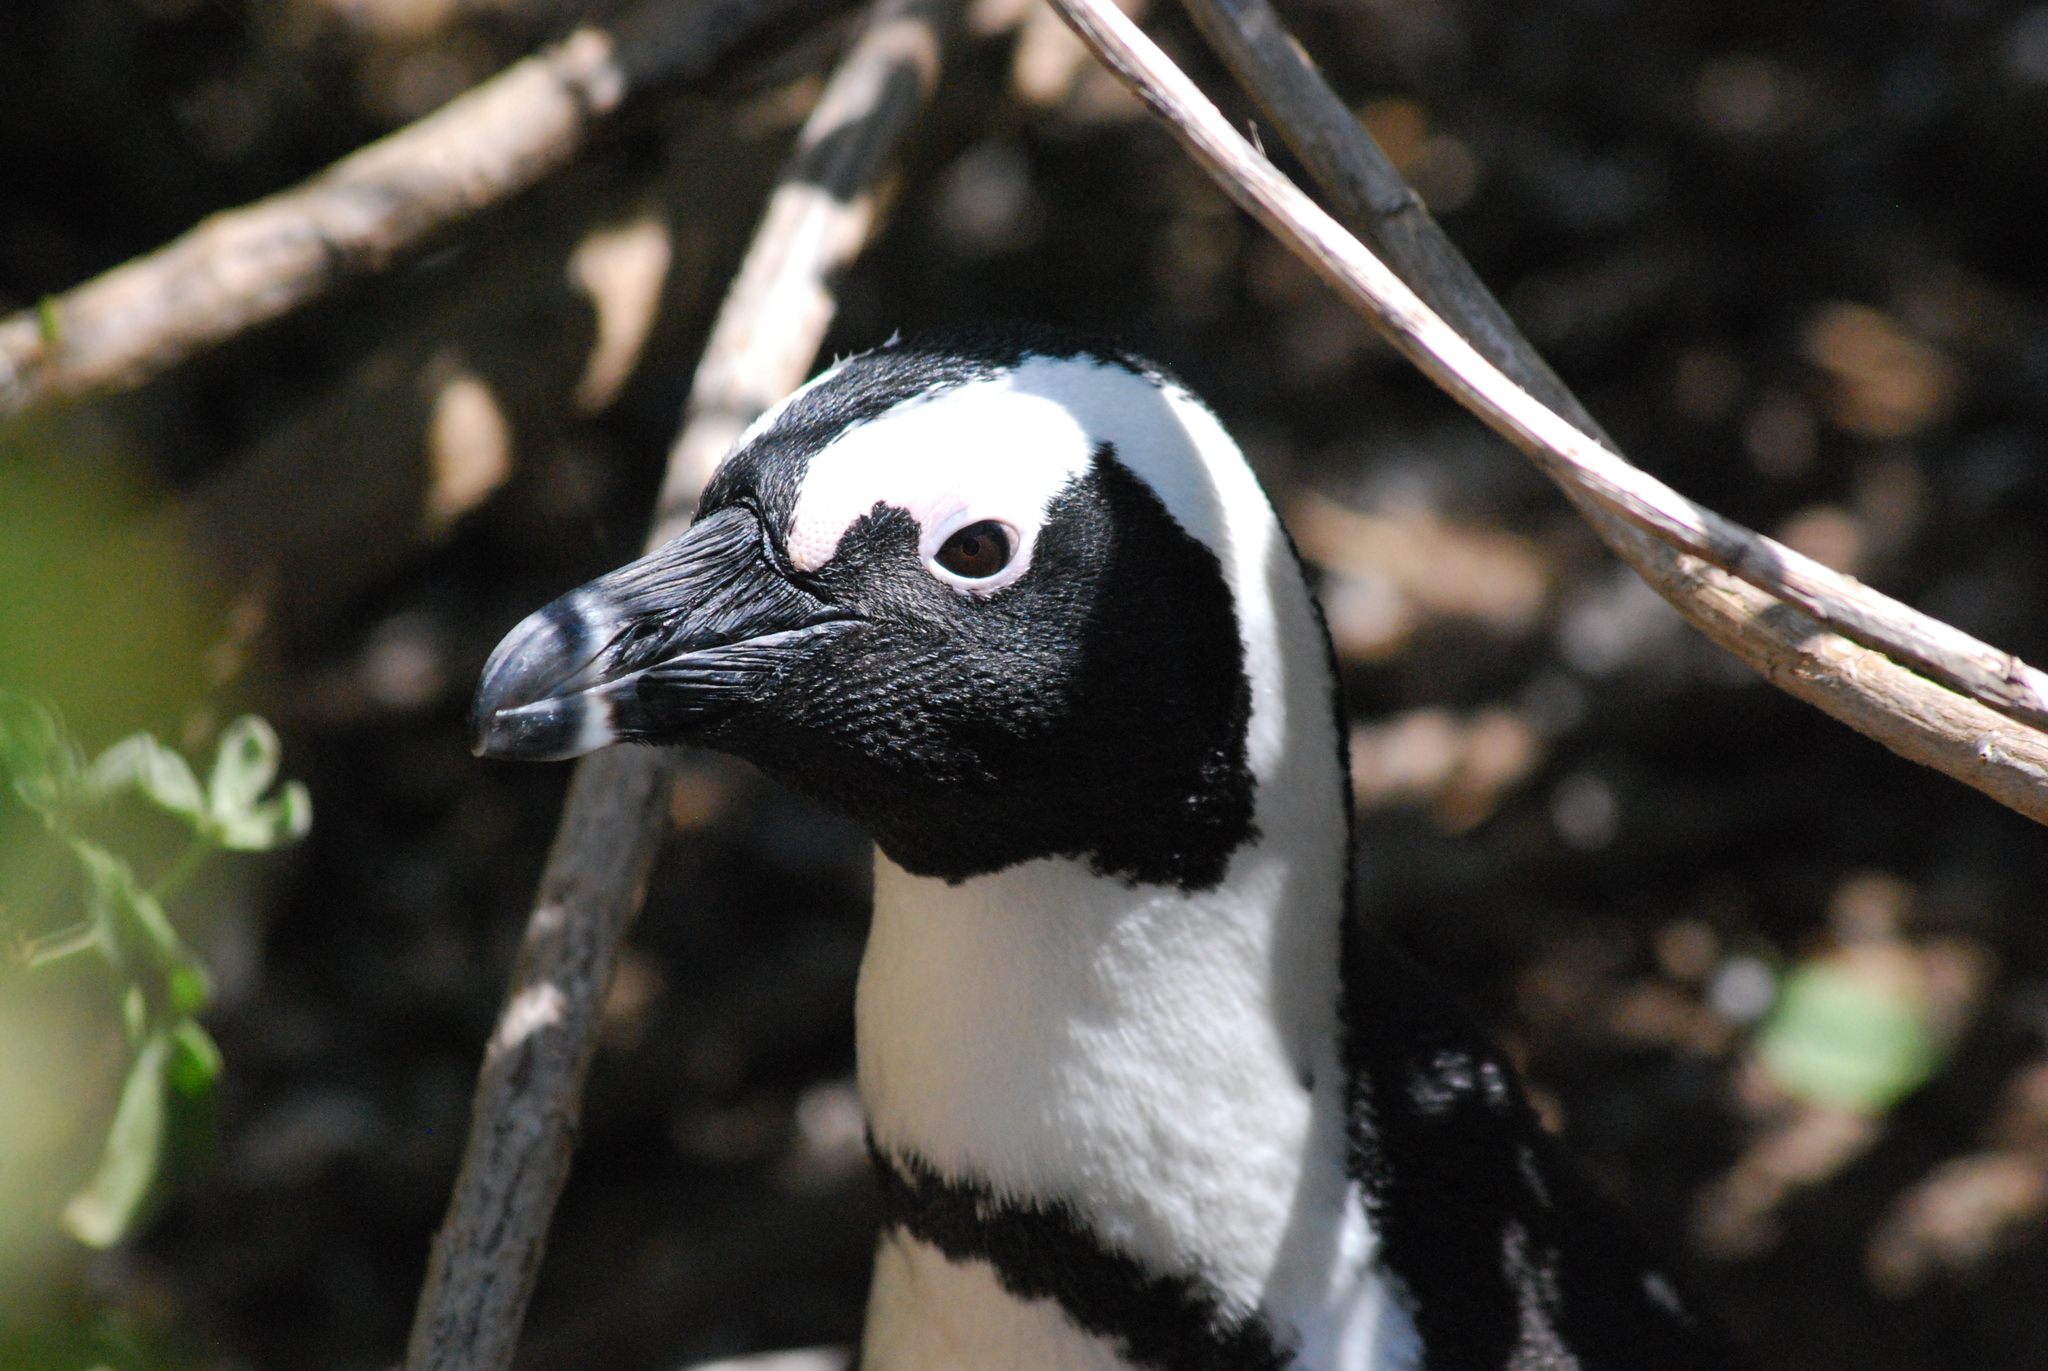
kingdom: Animalia
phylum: Chordata
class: Aves
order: Sphenisciformes
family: Spheniscidae
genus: Spheniscus
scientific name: Spheniscus demersus
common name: African penguin
